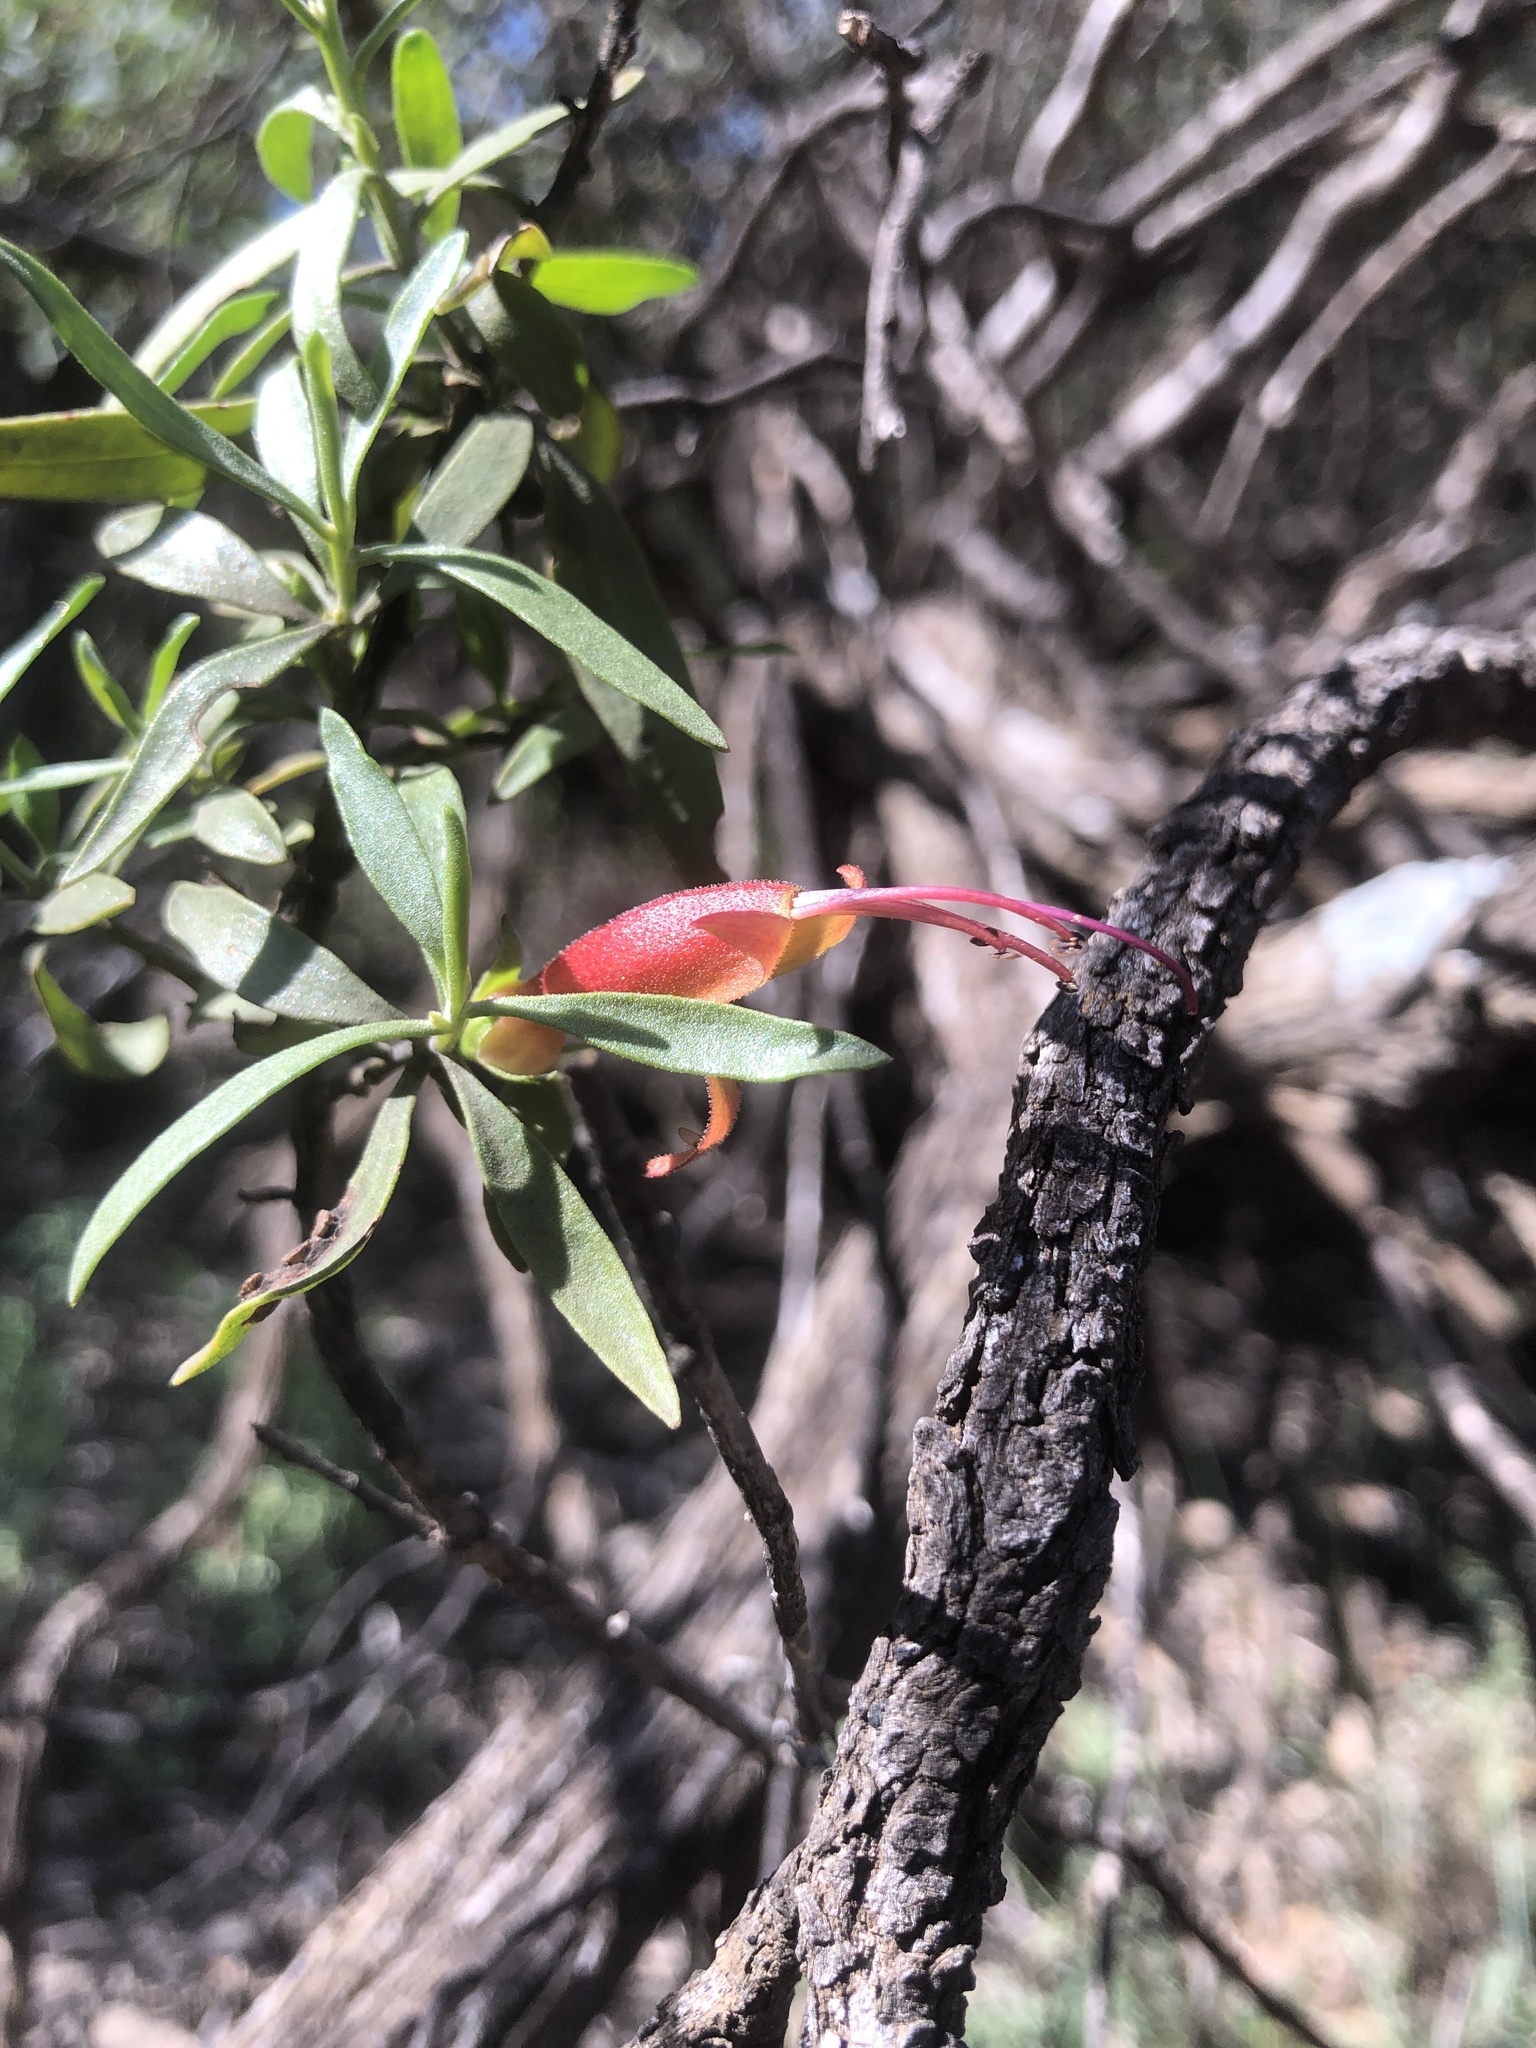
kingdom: Plantae
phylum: Tracheophyta
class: Magnoliopsida
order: Lamiales
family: Scrophulariaceae
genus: Eremophila
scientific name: Eremophila glabra
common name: Black-fuchsia
